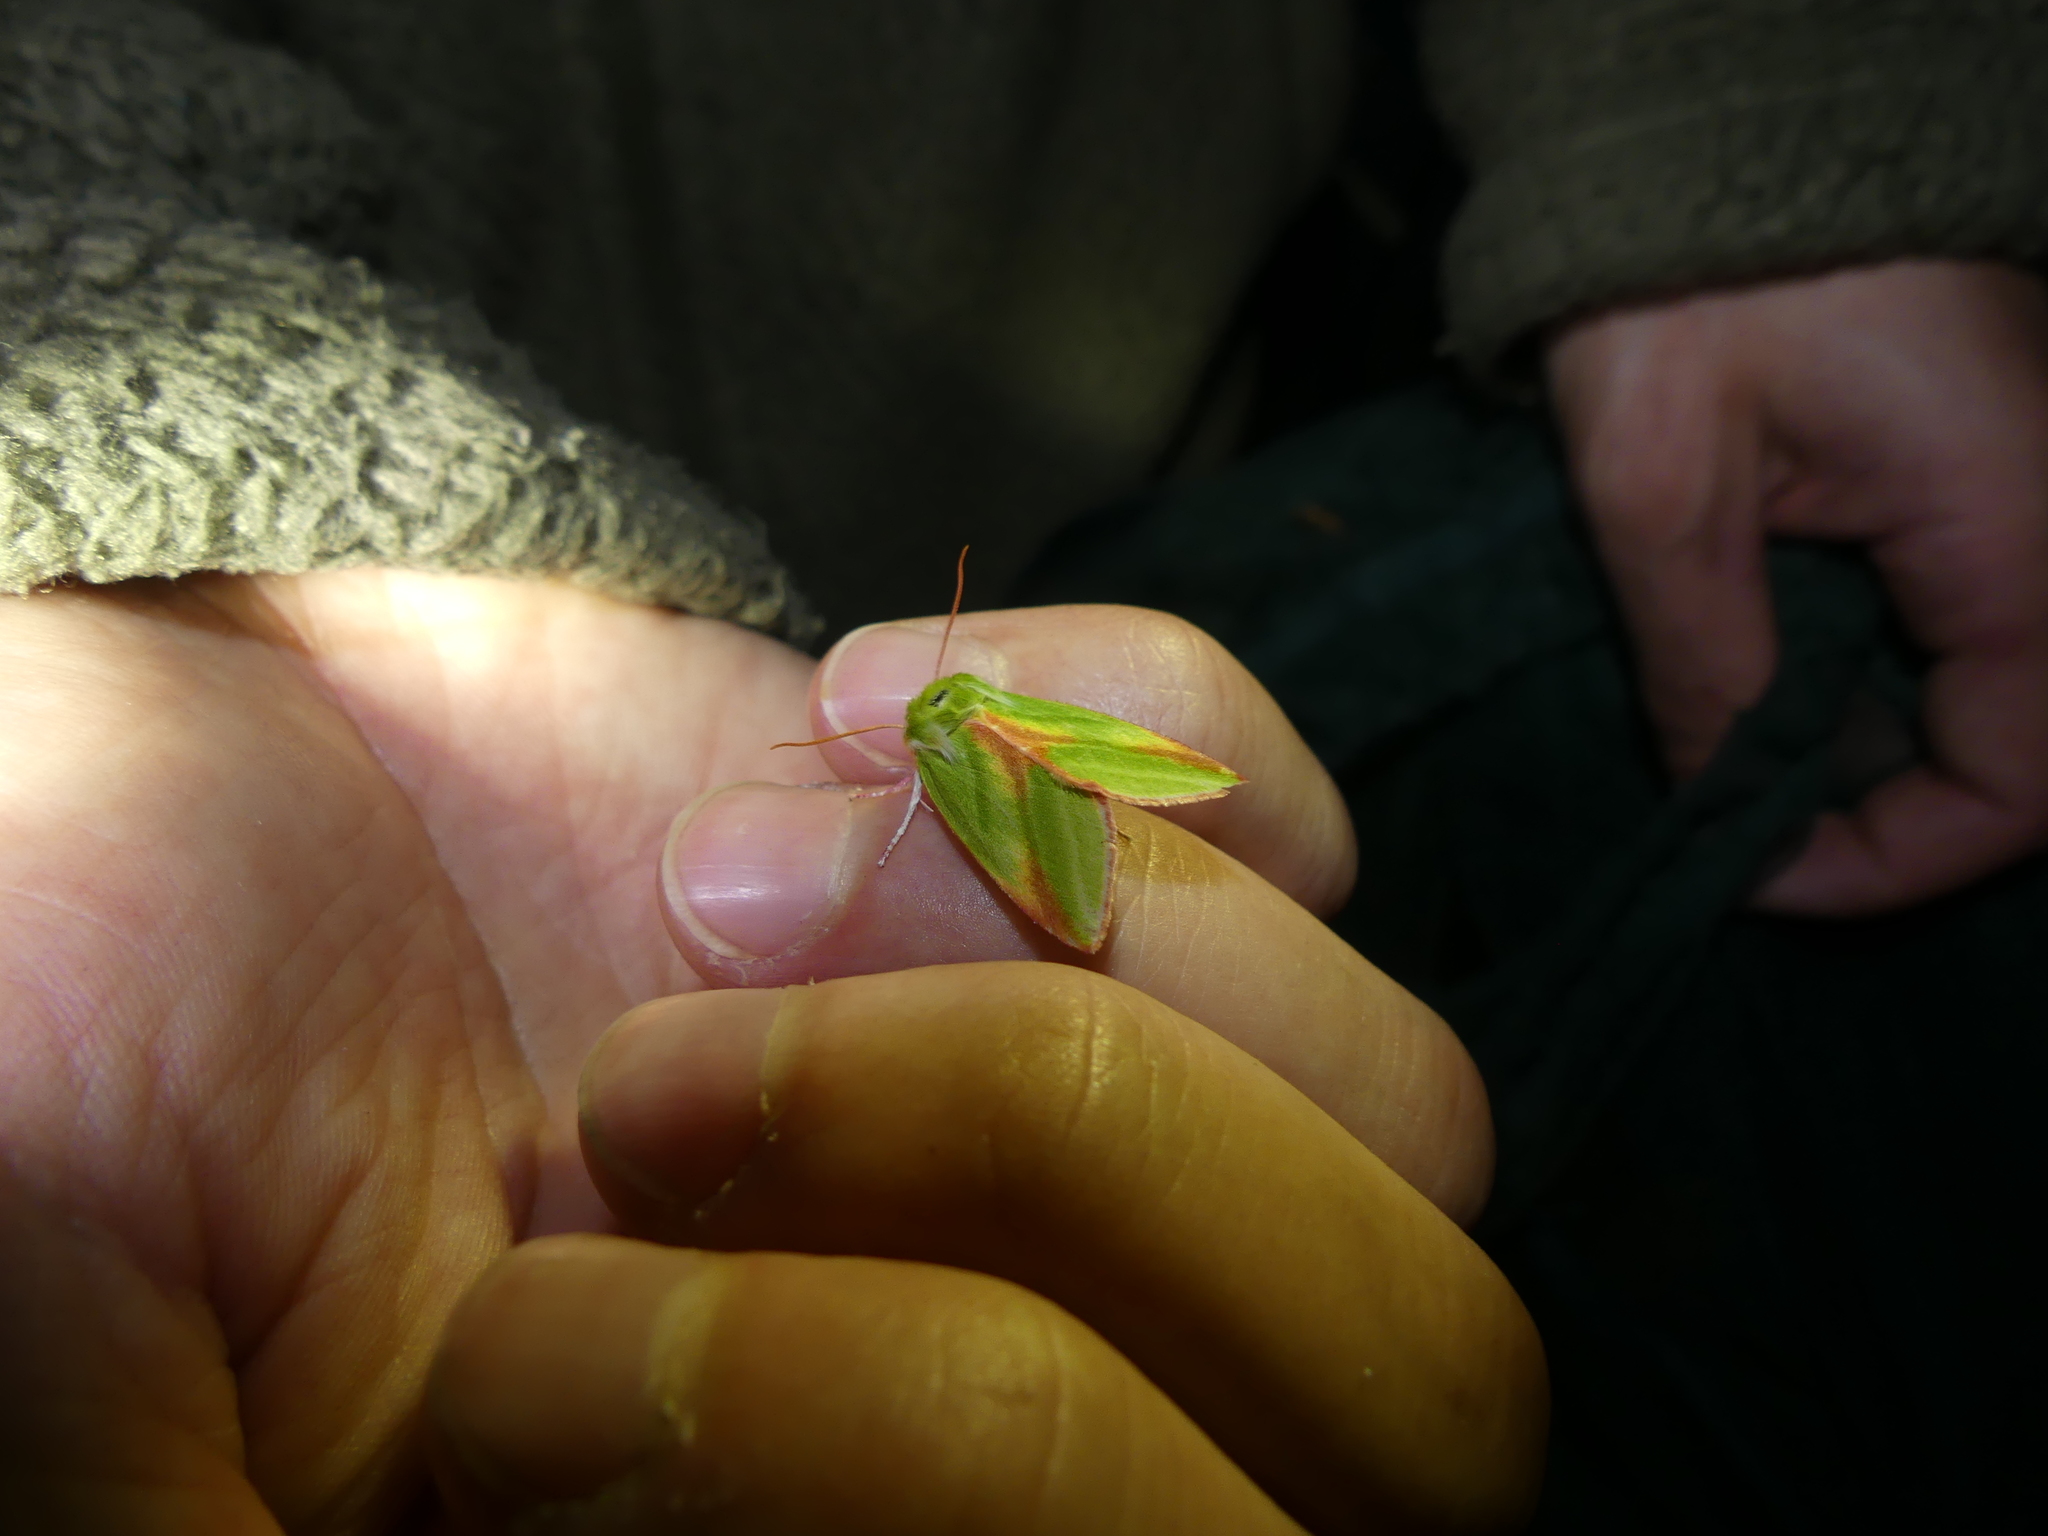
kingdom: Animalia
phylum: Arthropoda
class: Insecta
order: Lepidoptera
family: Nolidae
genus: Pseudoips
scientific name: Pseudoips prasinana
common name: Green silver-lines
